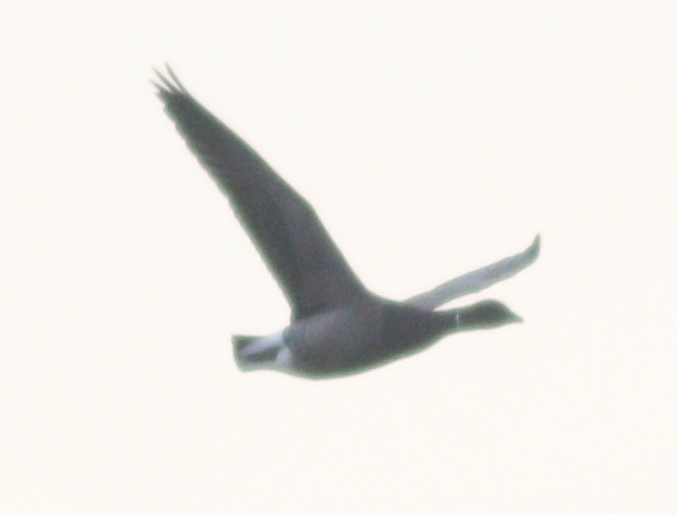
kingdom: Animalia
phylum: Chordata
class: Aves
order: Anseriformes
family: Anatidae
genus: Branta
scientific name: Branta bernicla
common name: Brant goose
